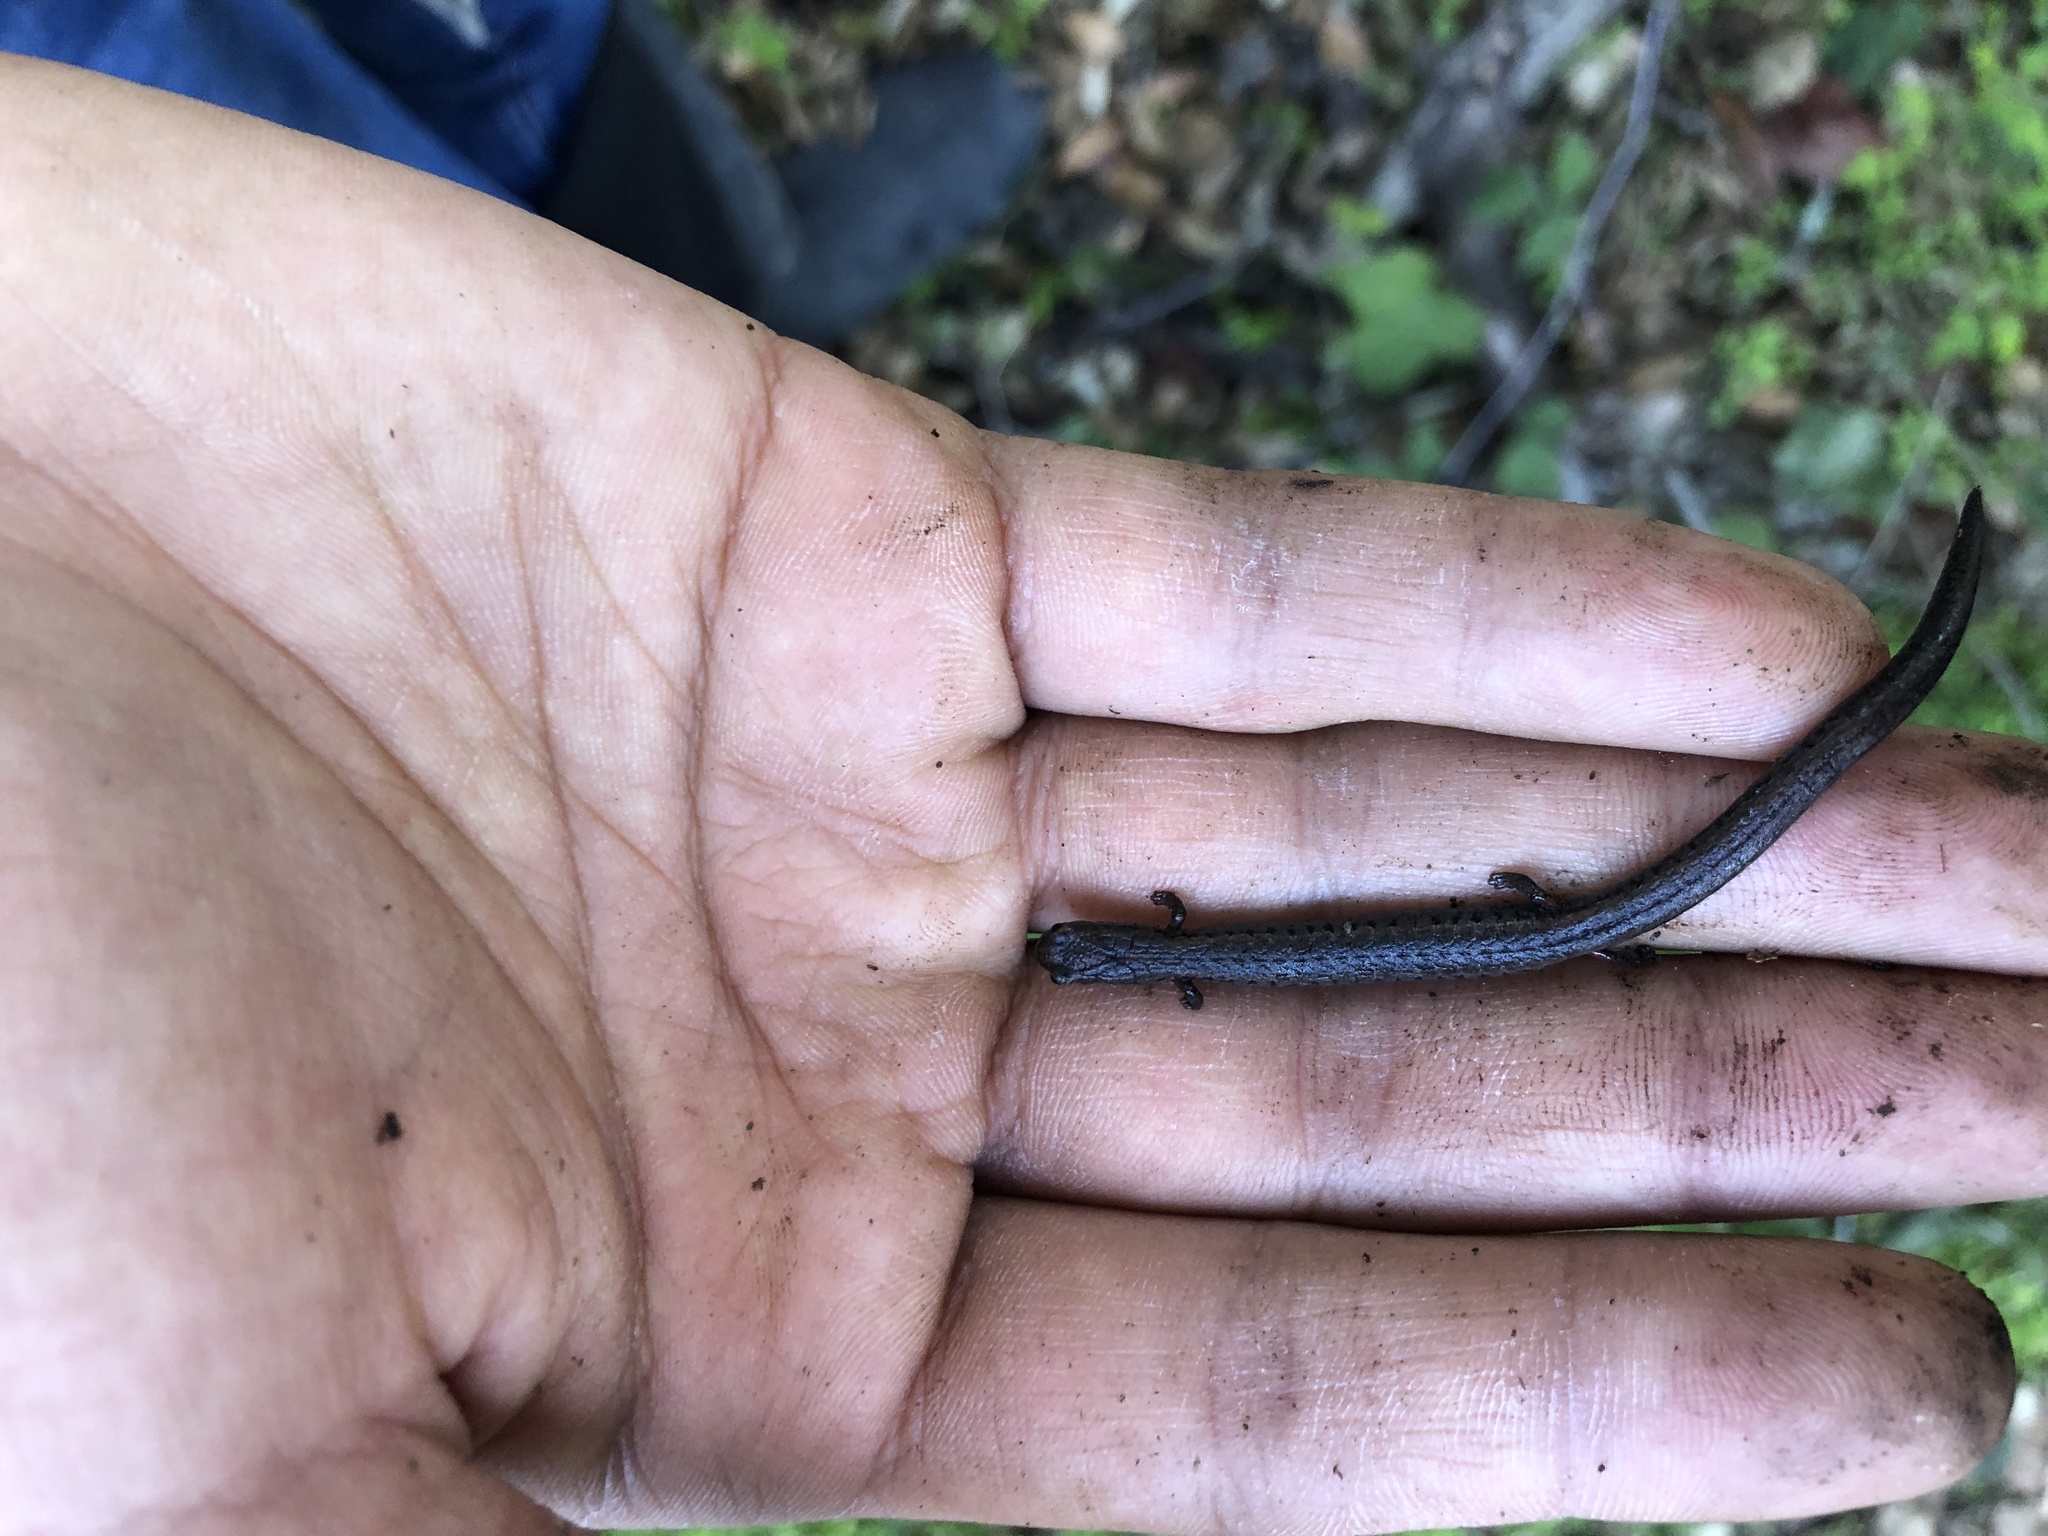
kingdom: Animalia
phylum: Chordata
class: Amphibia
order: Caudata
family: Plethodontidae
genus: Batrachoseps
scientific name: Batrachoseps attenuatus
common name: California slender salamander
